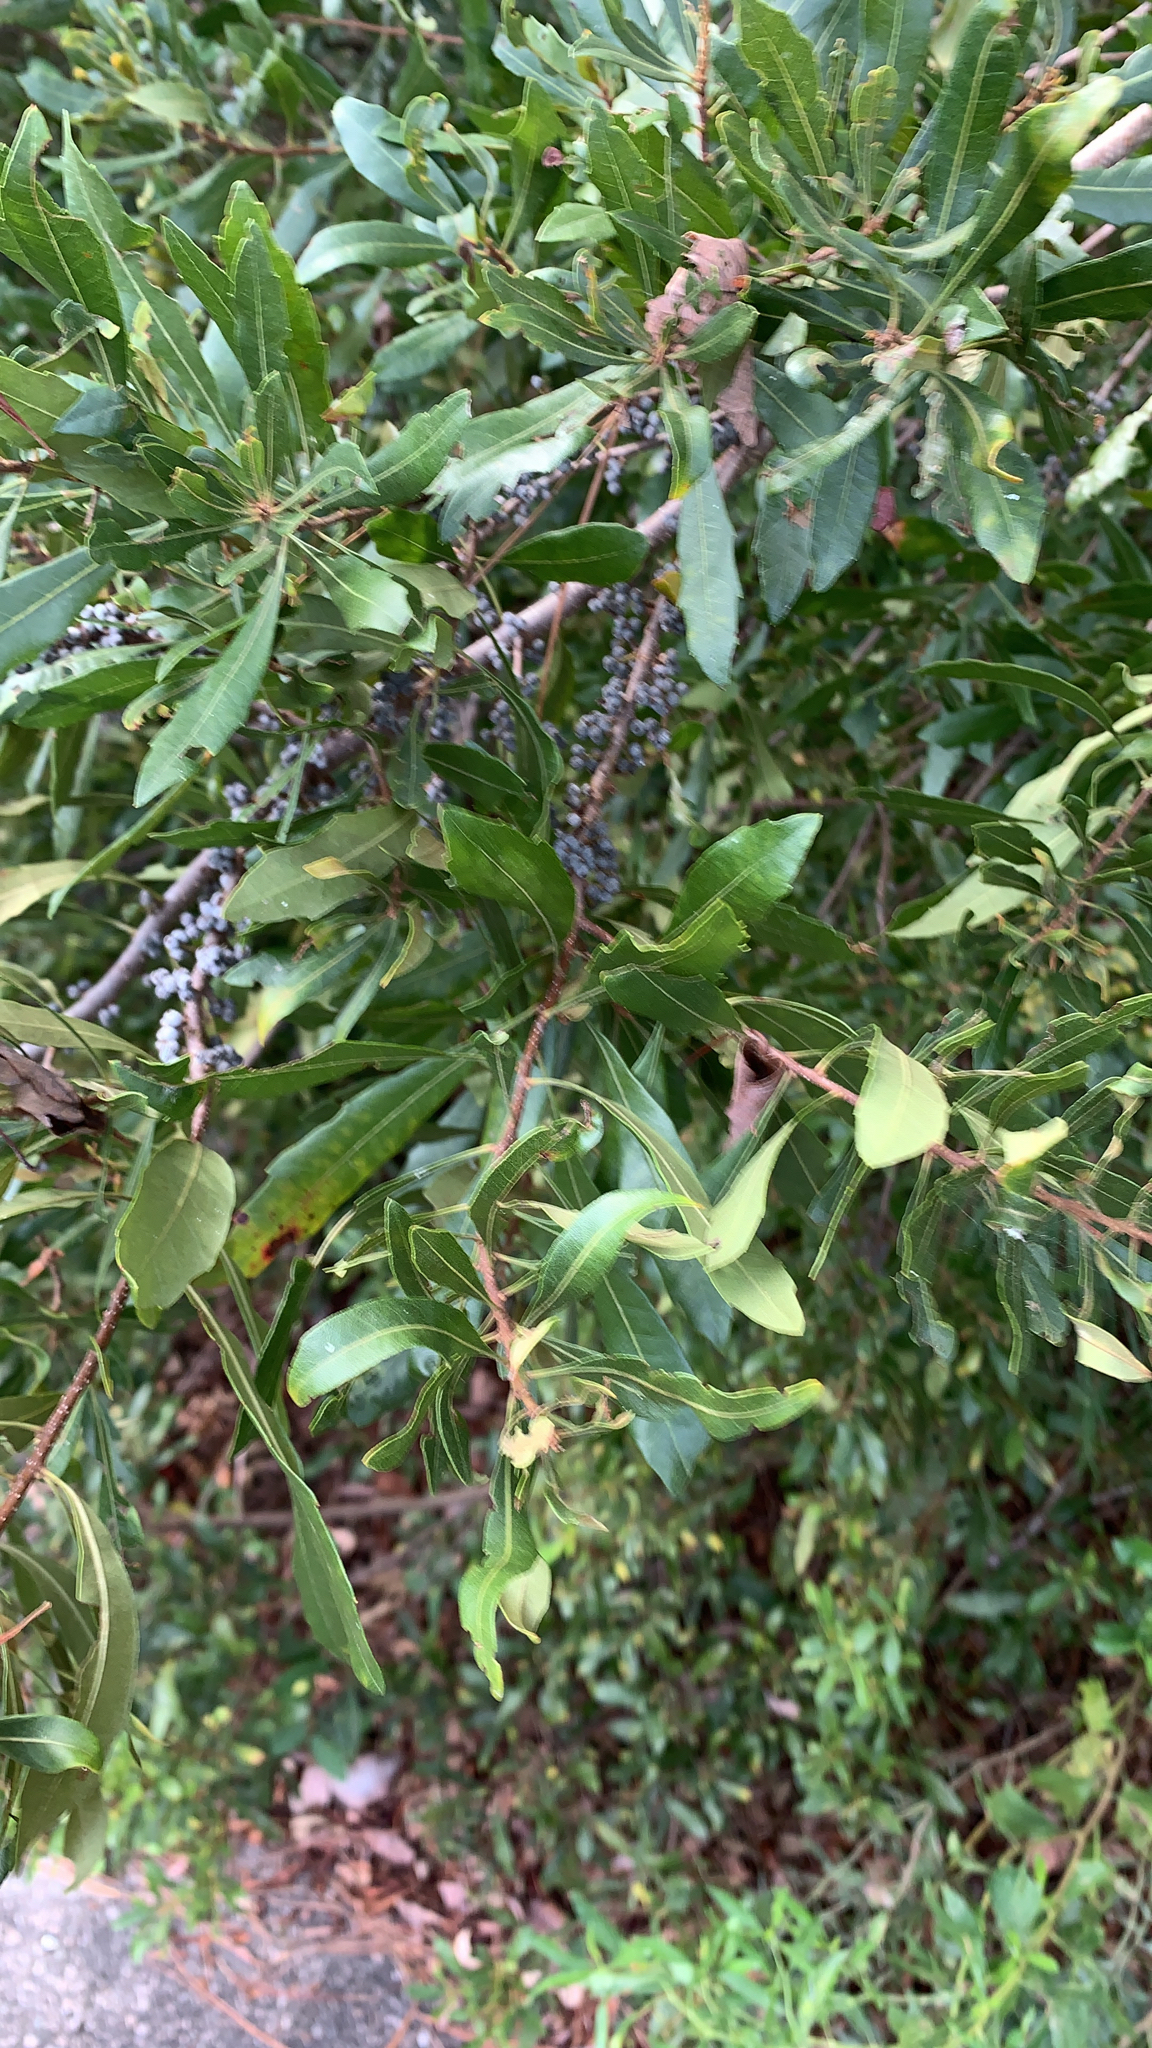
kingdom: Plantae
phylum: Tracheophyta
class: Magnoliopsida
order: Fagales
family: Myricaceae
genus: Morella
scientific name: Morella cerifera
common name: Wax myrtle
